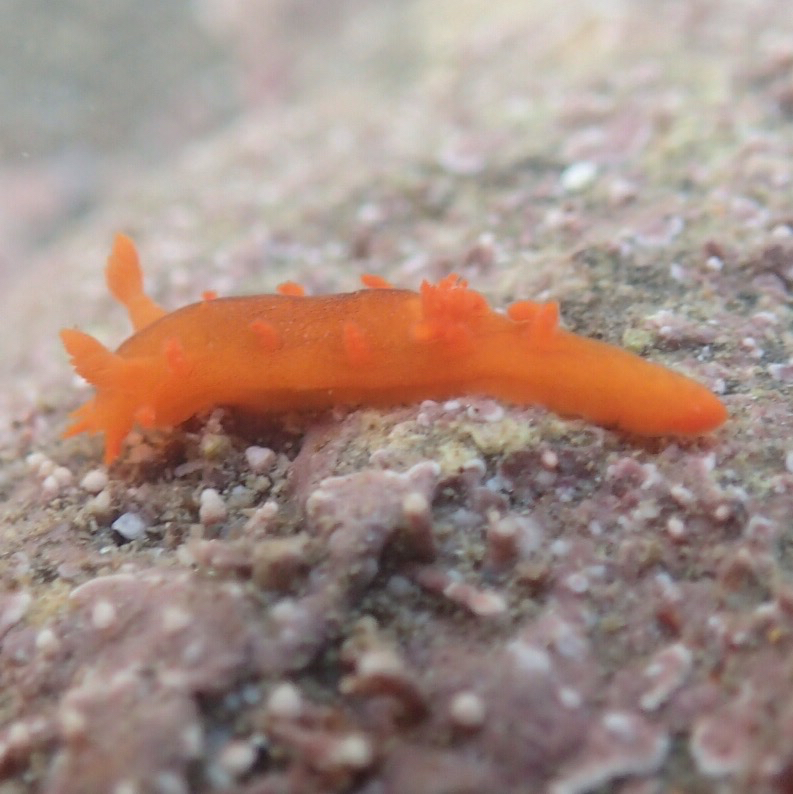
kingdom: Animalia
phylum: Mollusca
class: Gastropoda
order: Nudibranchia
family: Polyceridae
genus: Triopha
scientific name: Triopha maculata
